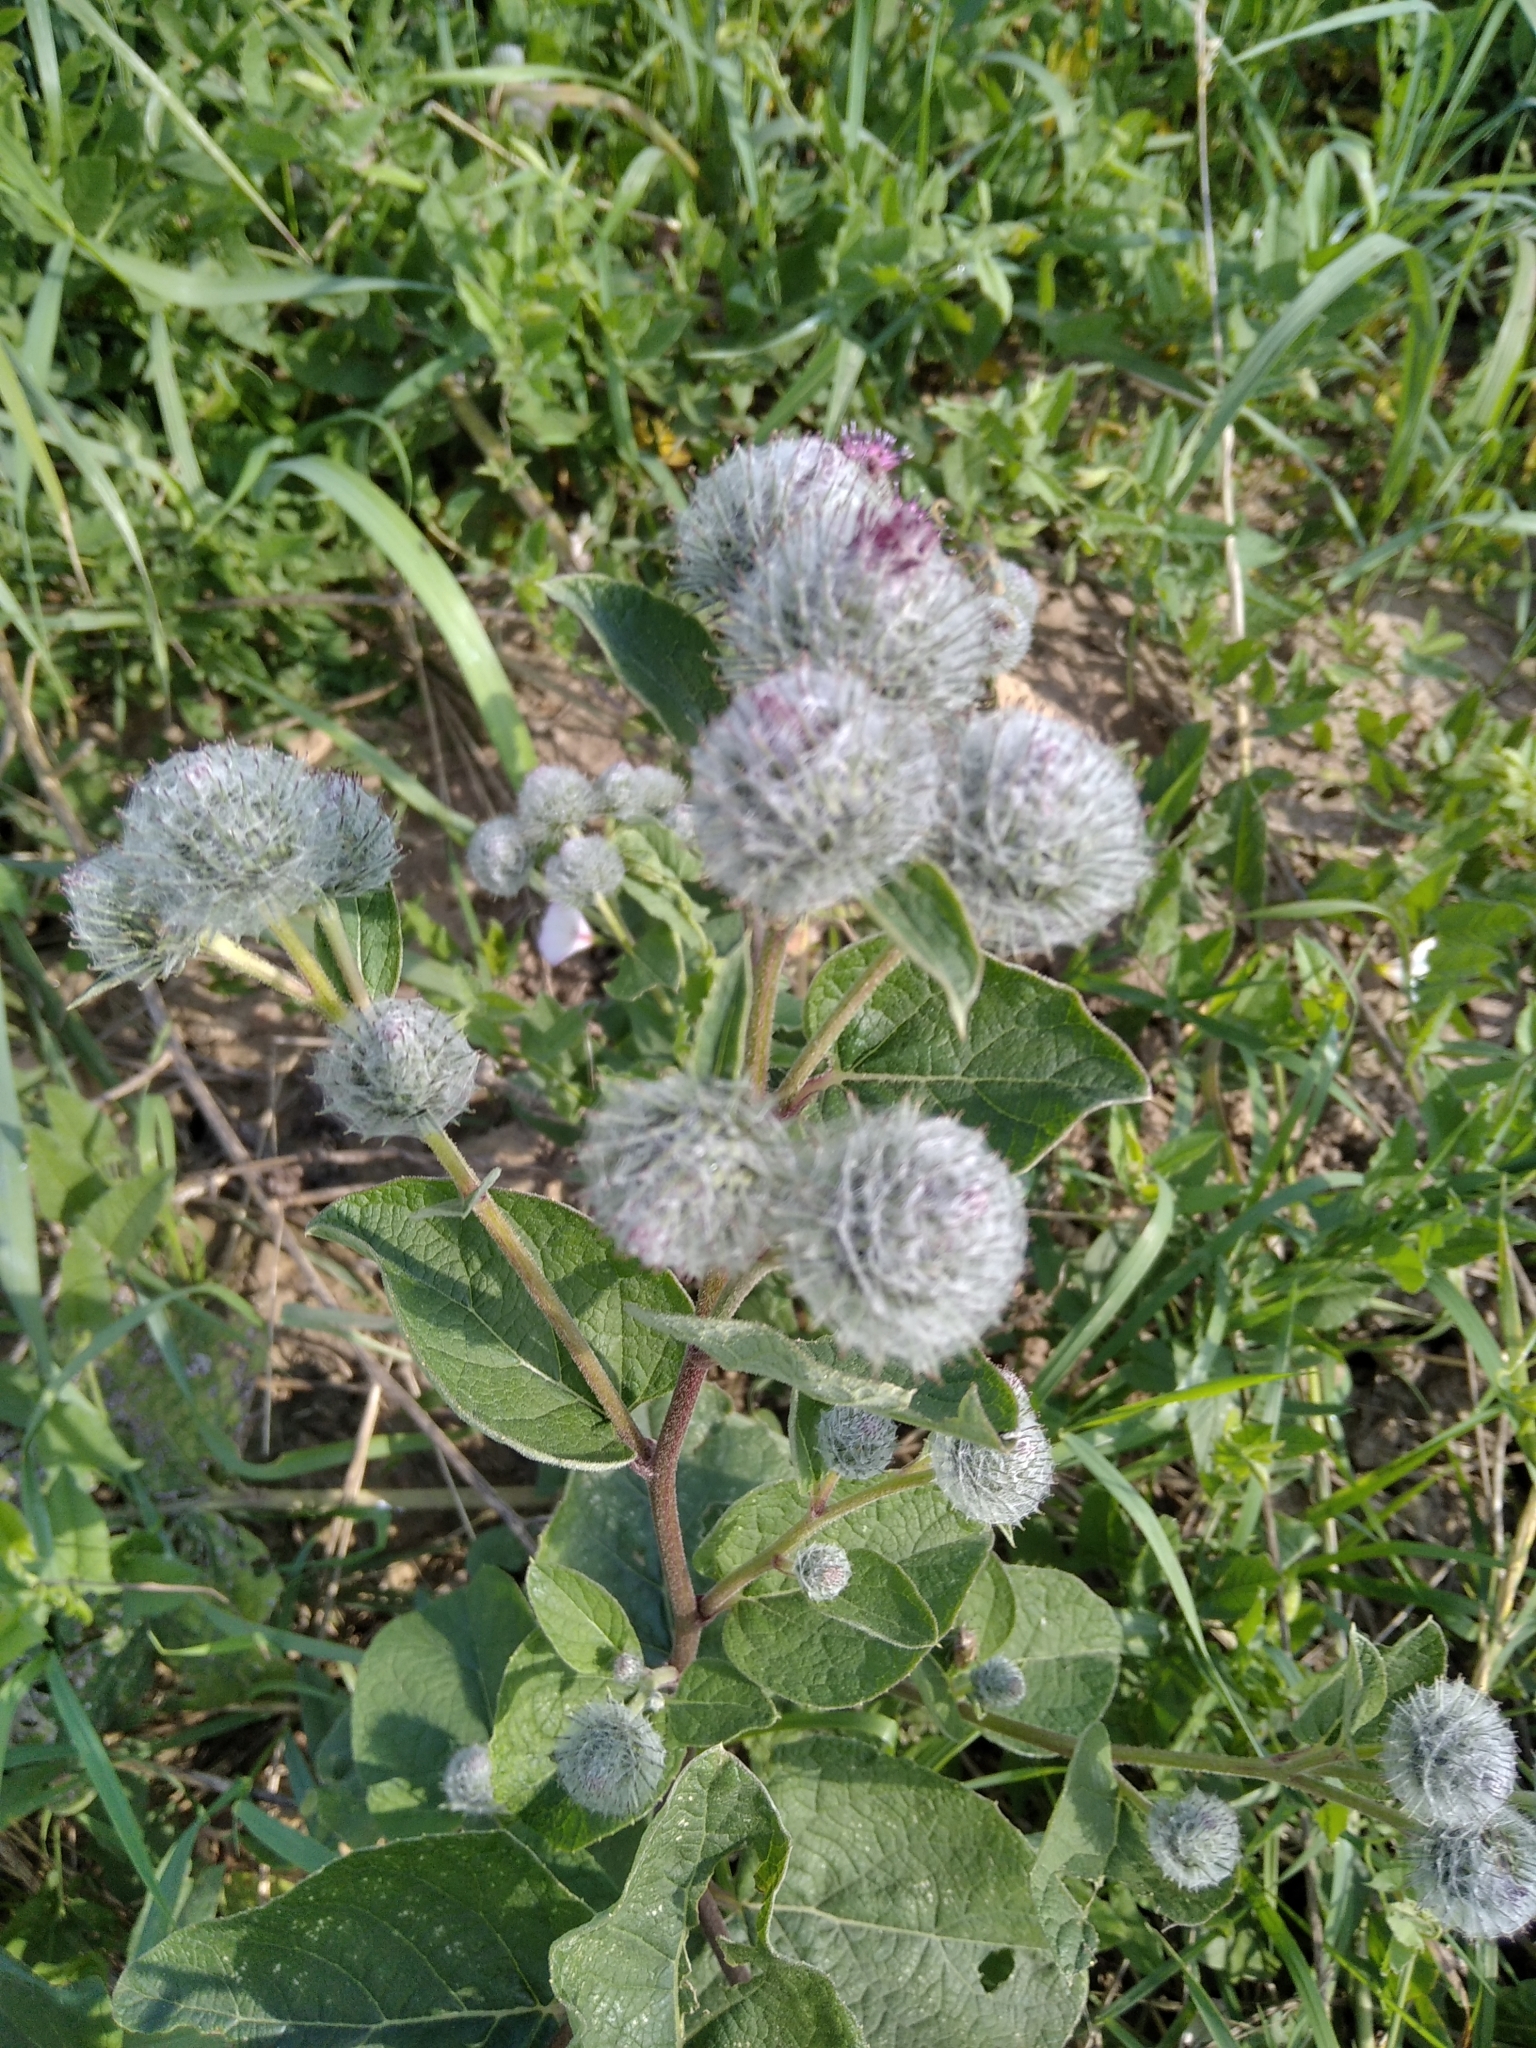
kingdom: Plantae
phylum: Tracheophyta
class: Magnoliopsida
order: Asterales
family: Asteraceae
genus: Arctium
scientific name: Arctium tomentosum
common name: Woolly burdock
